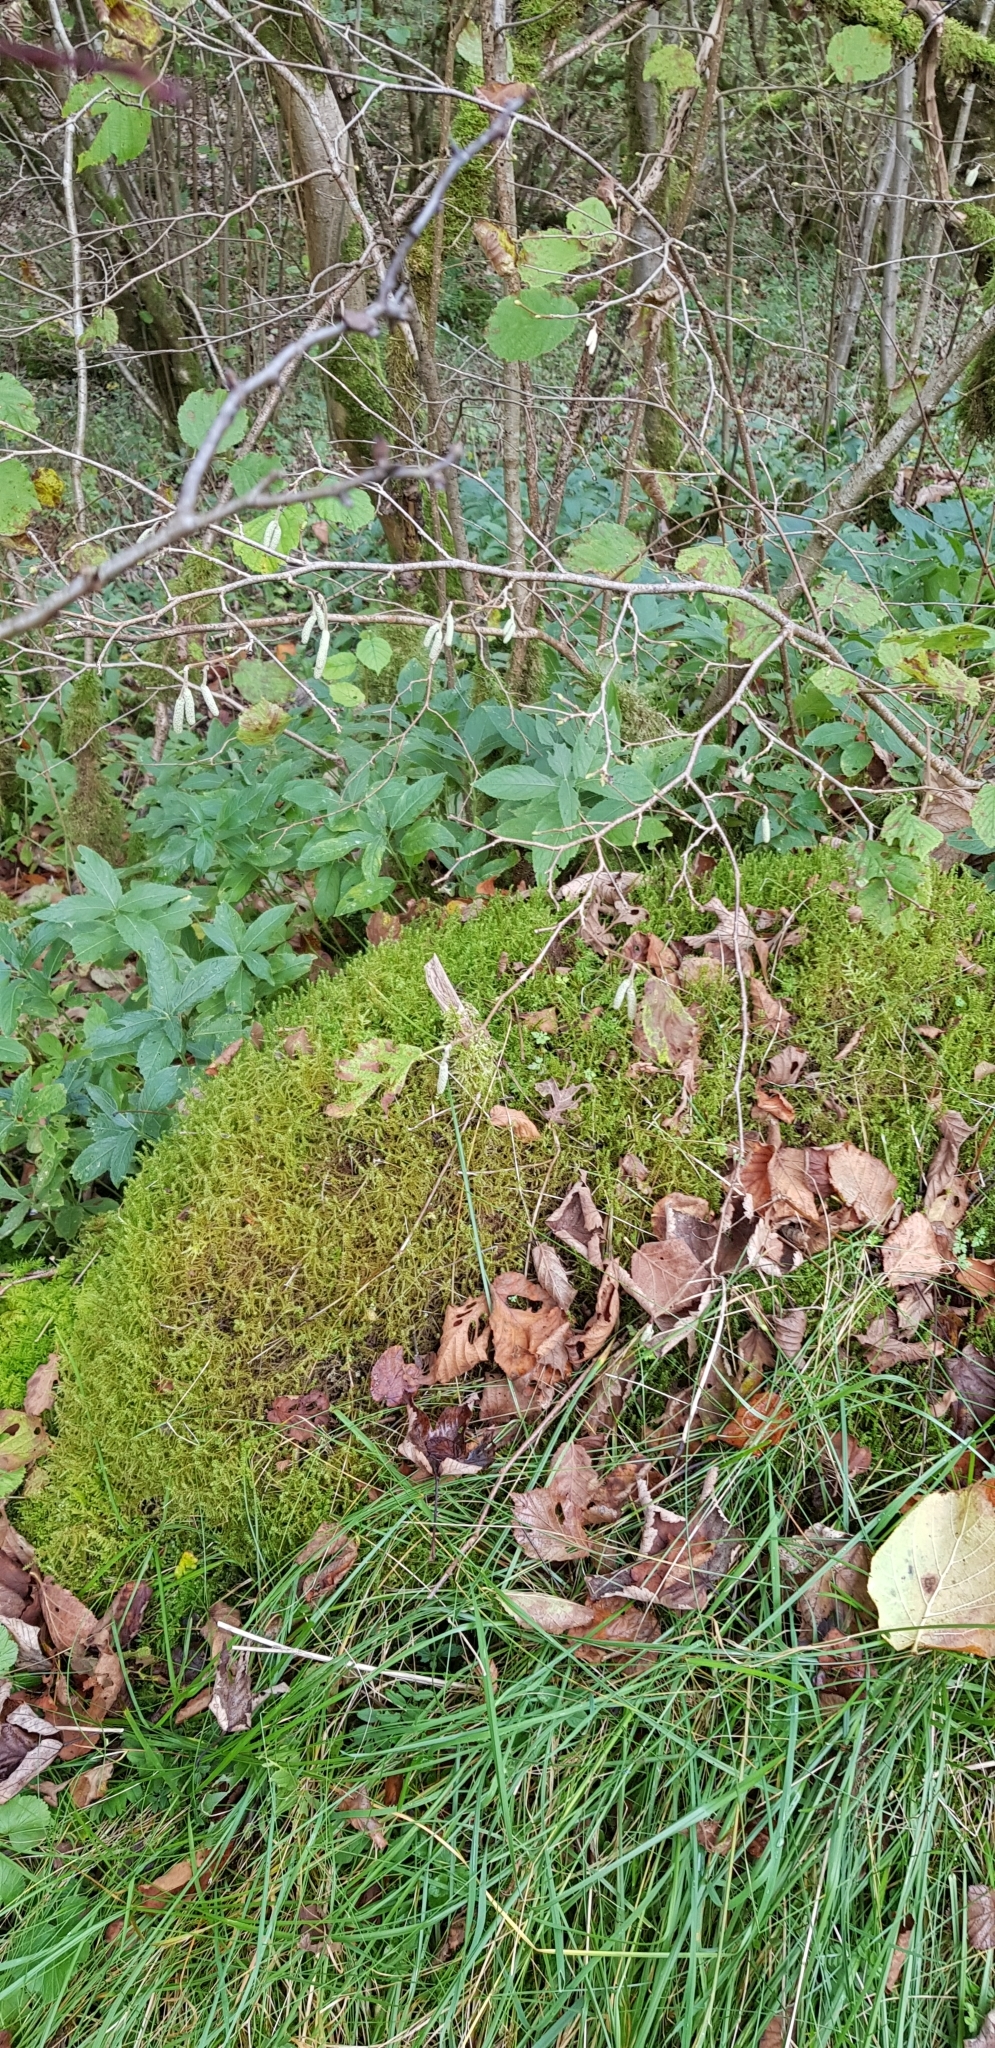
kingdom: Plantae
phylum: Bryophyta
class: Bryopsida
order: Hypnales
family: Hylocomiaceae
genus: Rhytidiadelphus
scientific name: Rhytidiadelphus squarrosus
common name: Springy turf-moss
